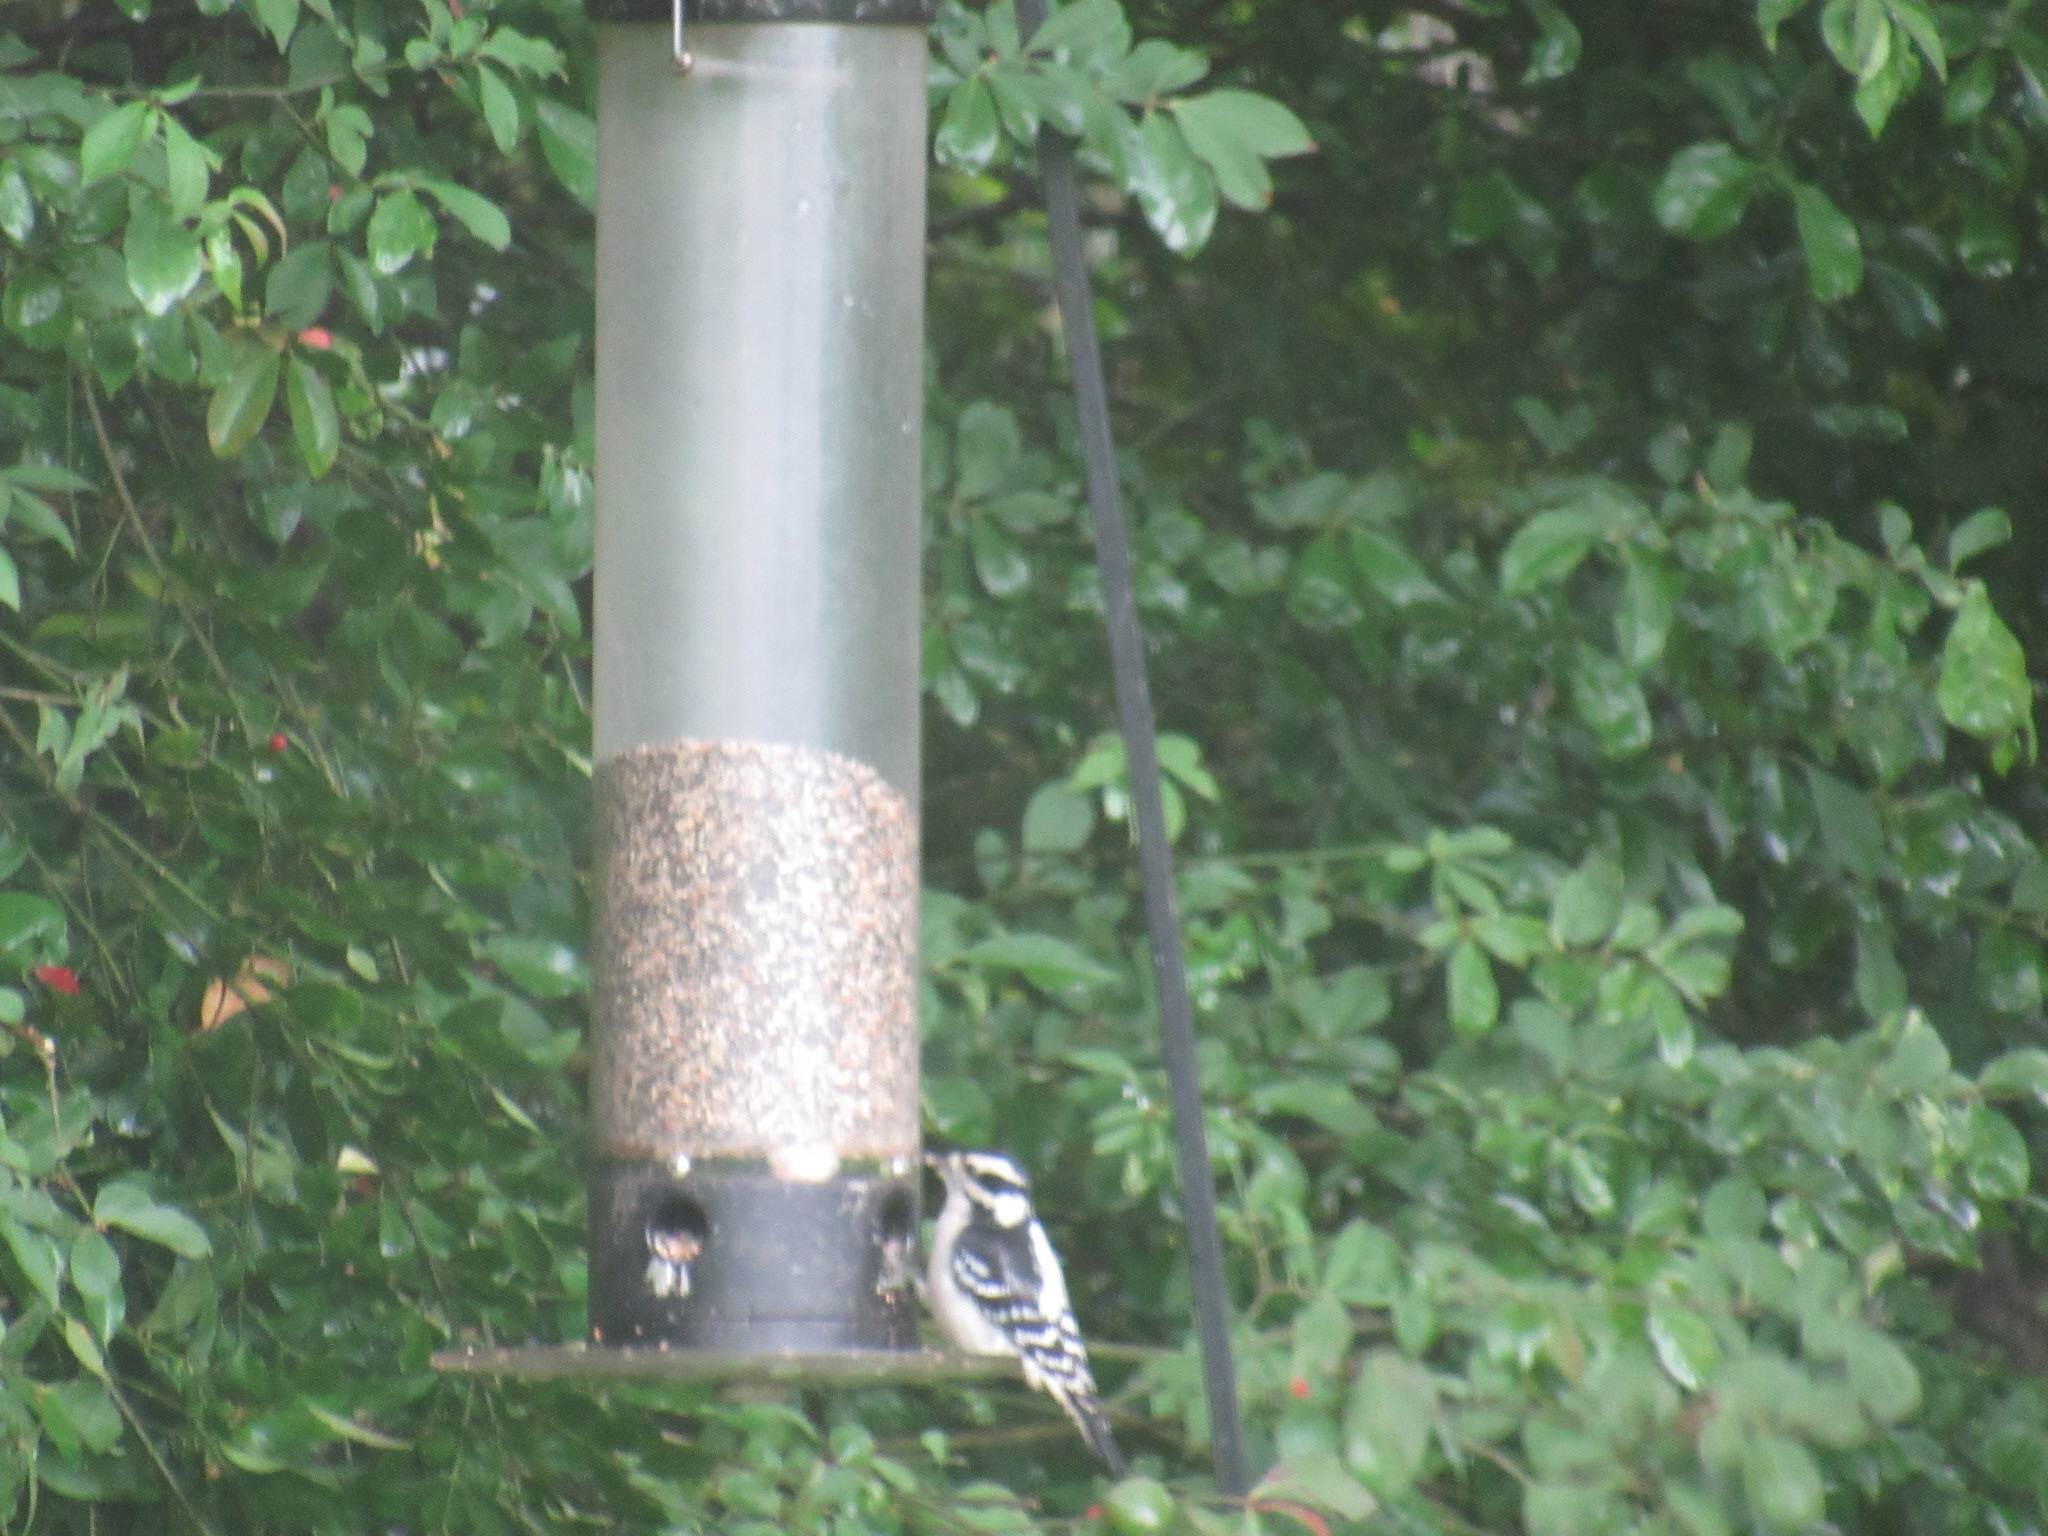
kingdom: Animalia
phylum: Chordata
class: Aves
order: Piciformes
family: Picidae
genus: Dryobates
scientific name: Dryobates pubescens
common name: Downy woodpecker
